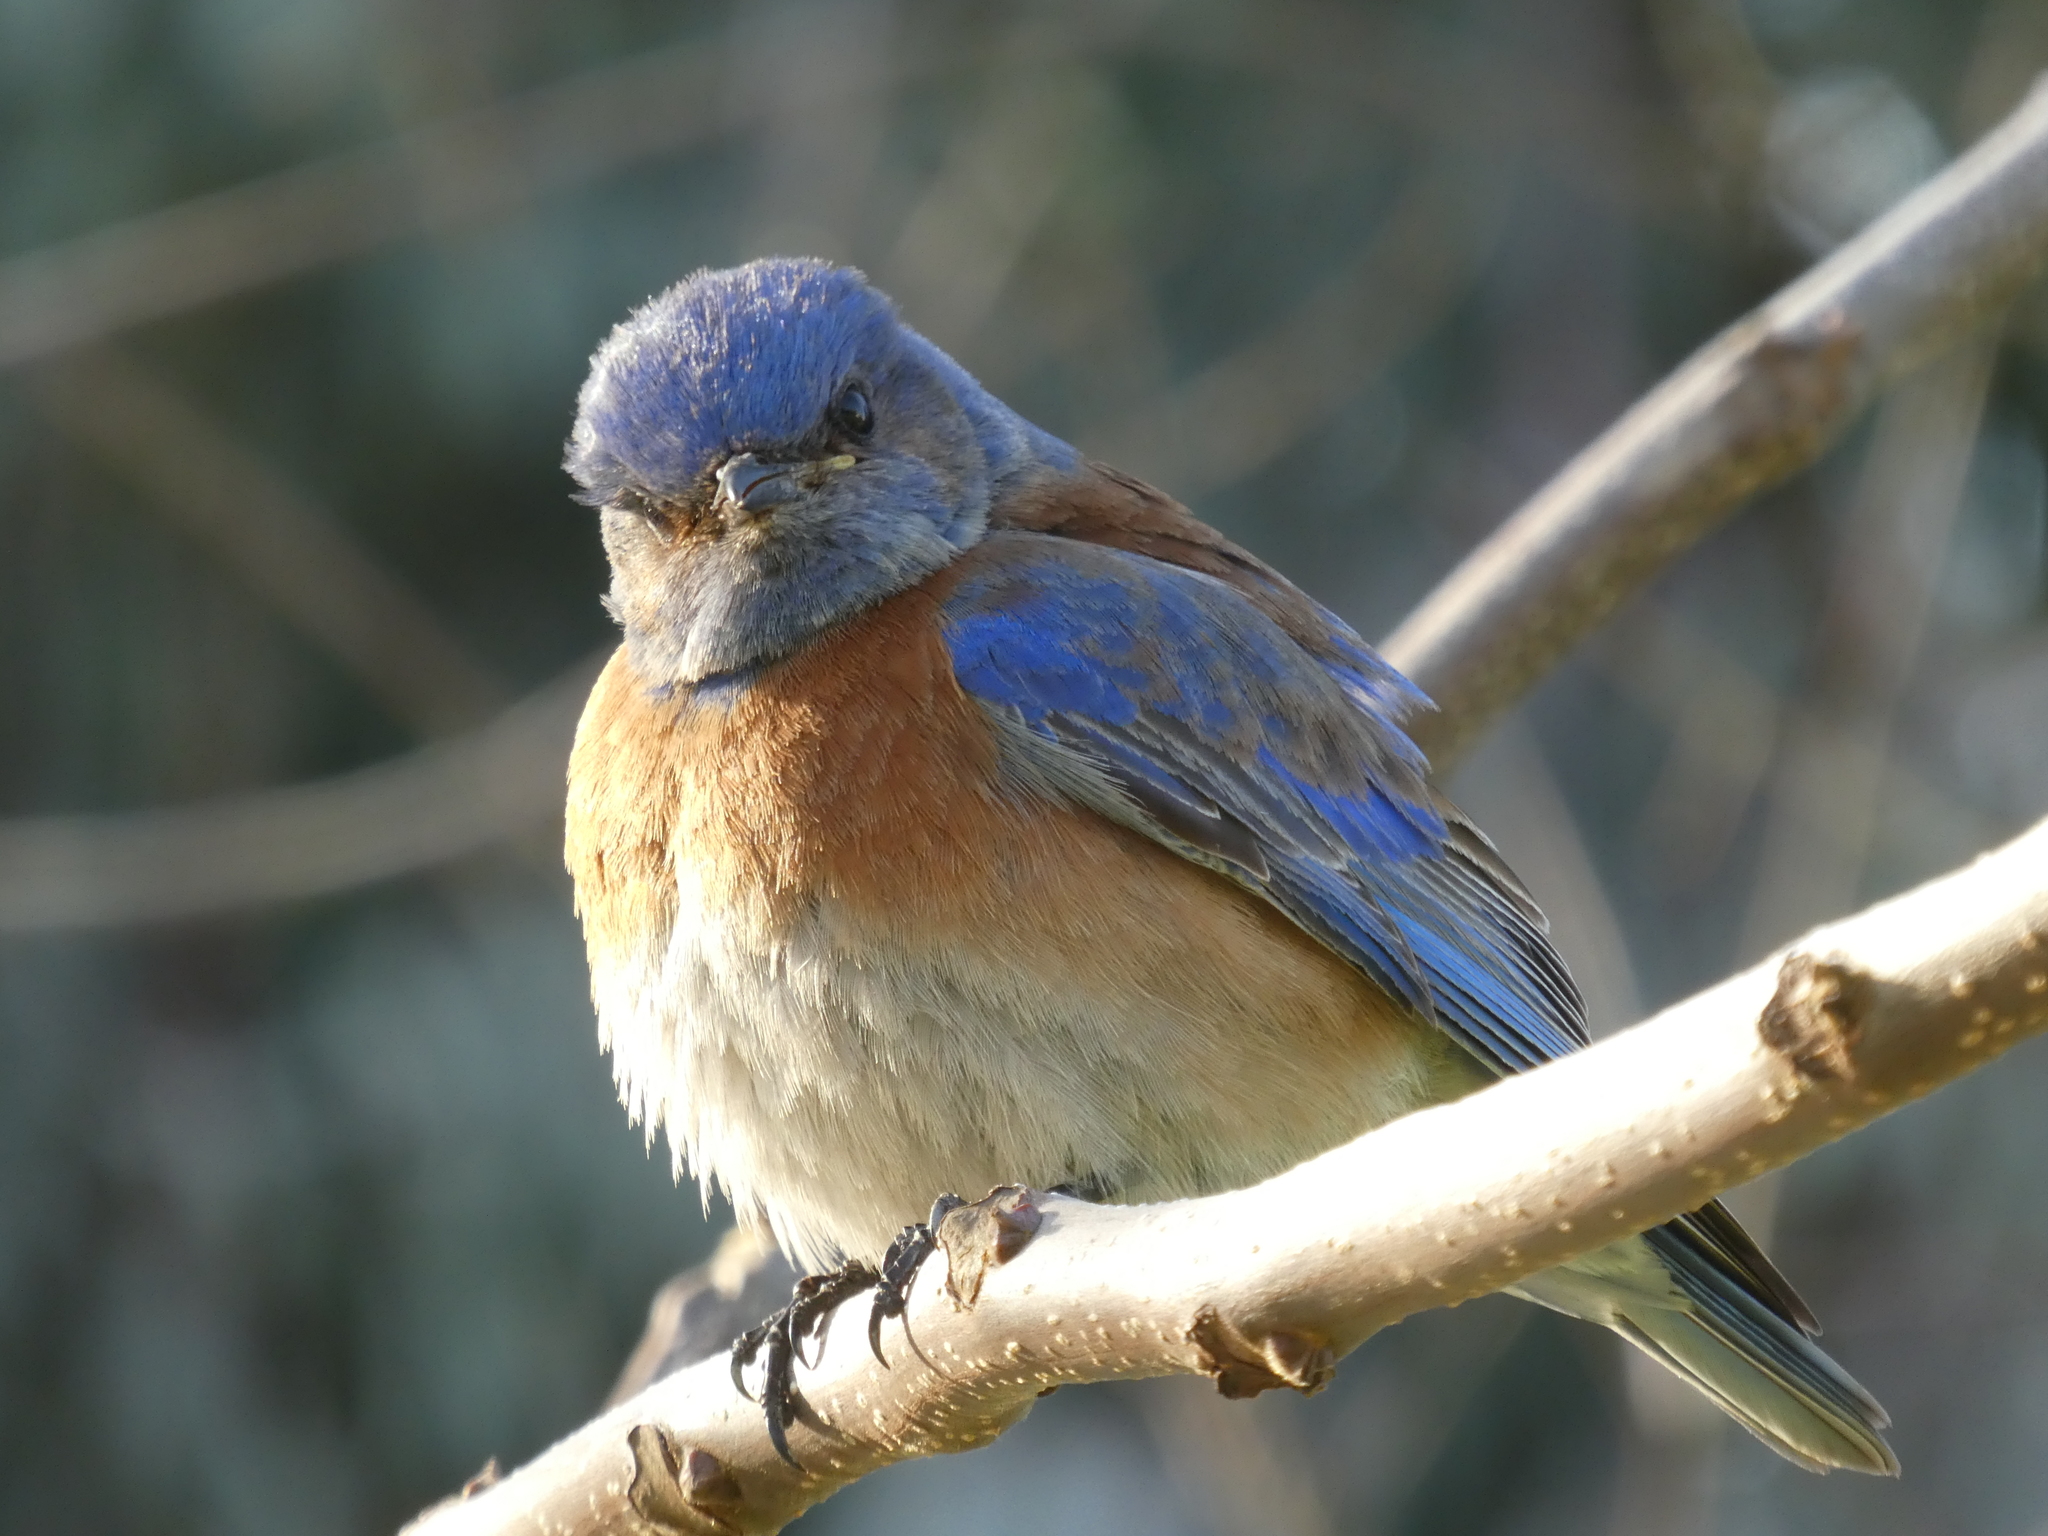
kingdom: Animalia
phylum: Chordata
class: Aves
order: Passeriformes
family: Turdidae
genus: Sialia
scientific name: Sialia mexicana
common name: Western bluebird
